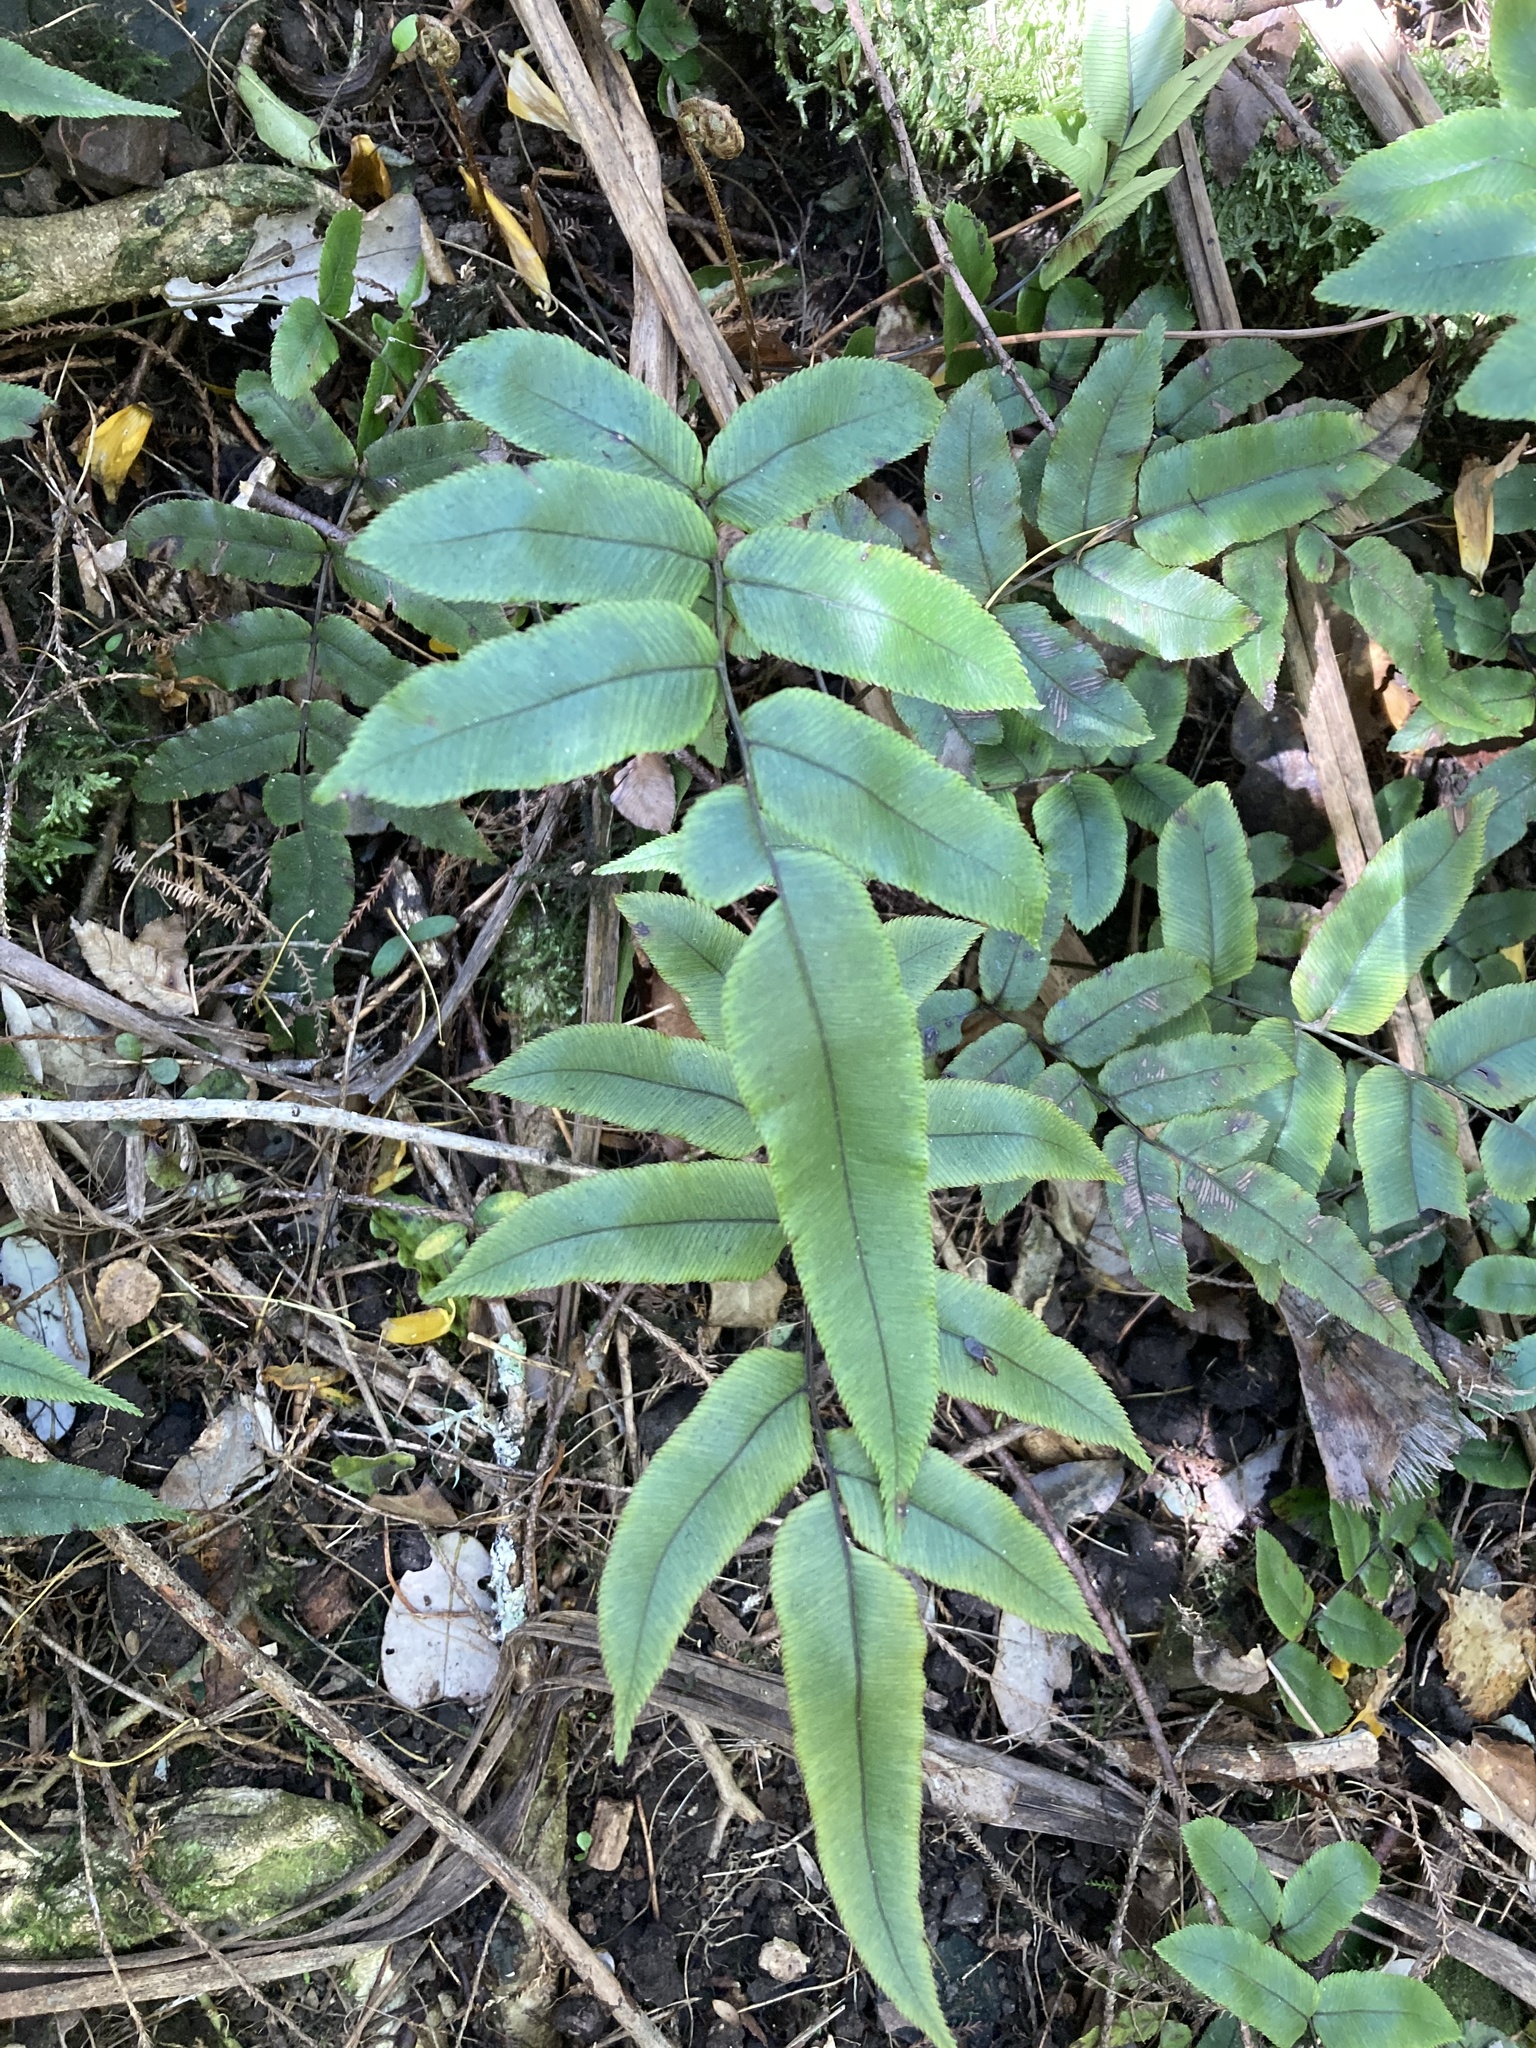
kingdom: Plantae
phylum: Tracheophyta
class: Polypodiopsida
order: Polypodiales
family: Blechnaceae
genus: Parablechnum
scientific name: Parablechnum procerum
